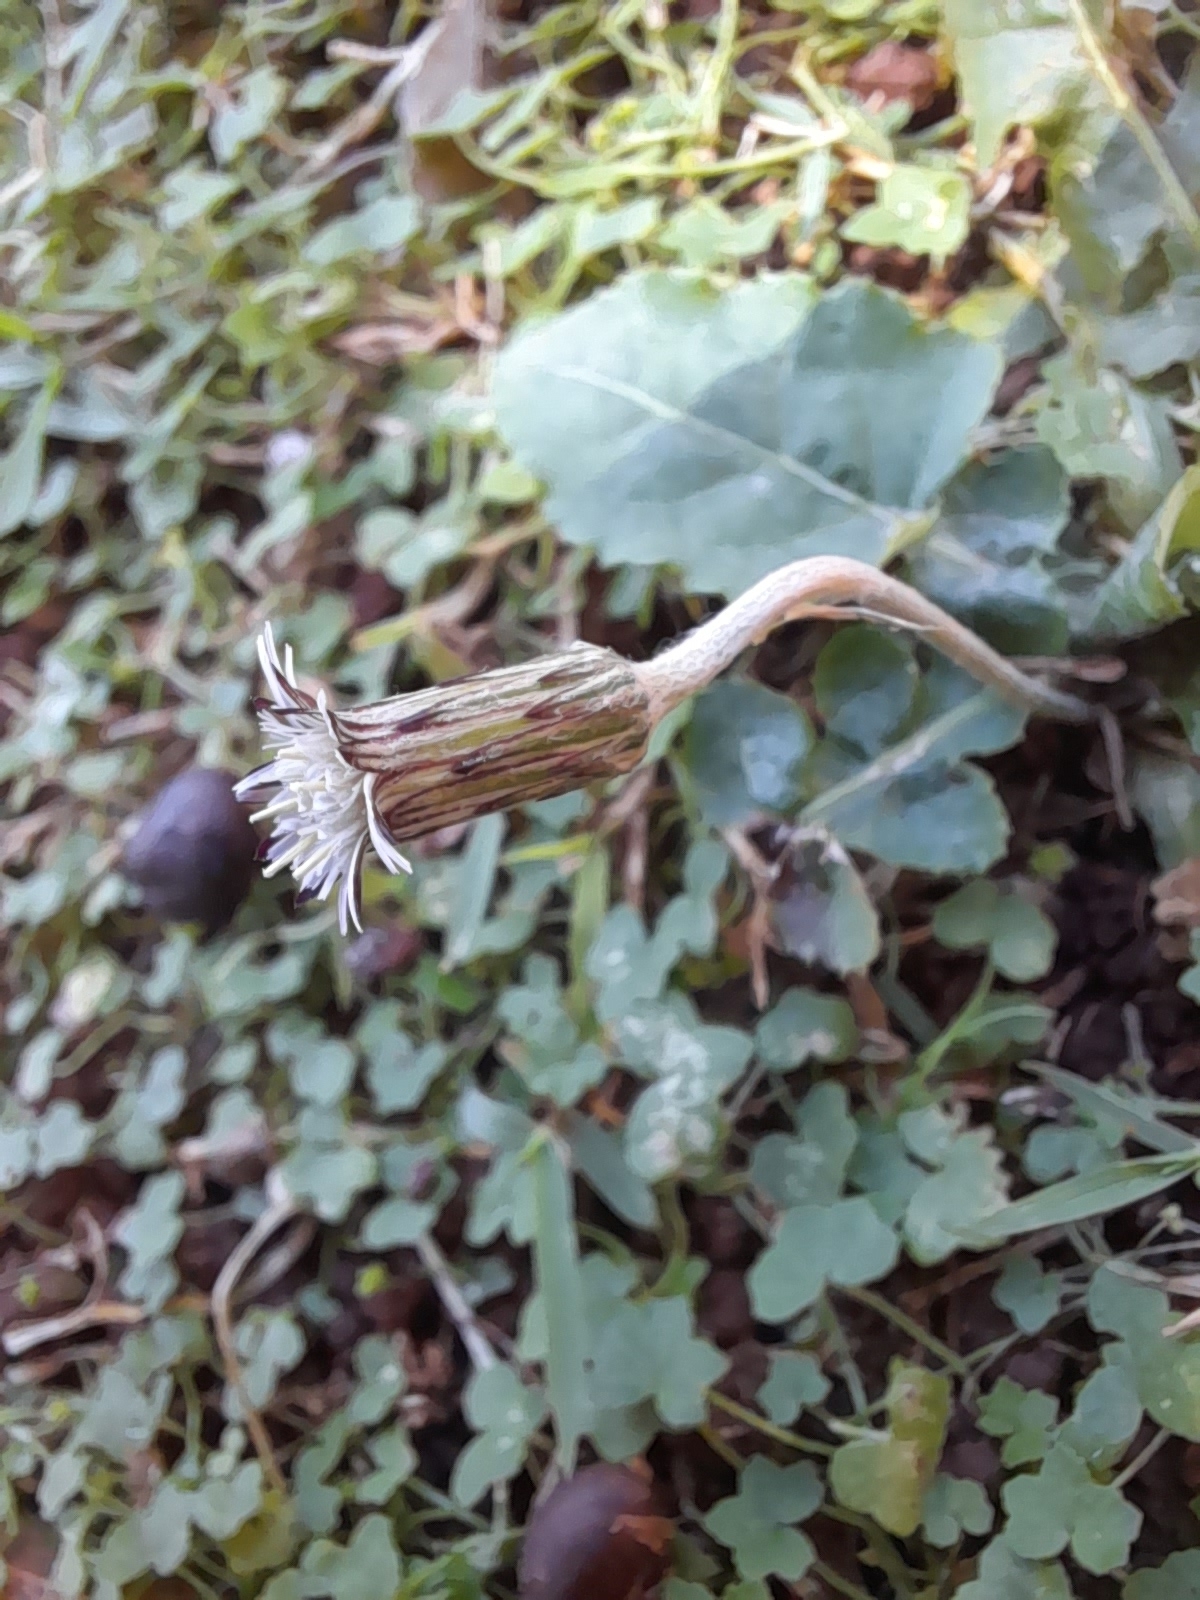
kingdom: Plantae
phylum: Tracheophyta
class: Magnoliopsida
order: Asterales
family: Asteraceae
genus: Chaptalia
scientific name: Chaptalia nutans
